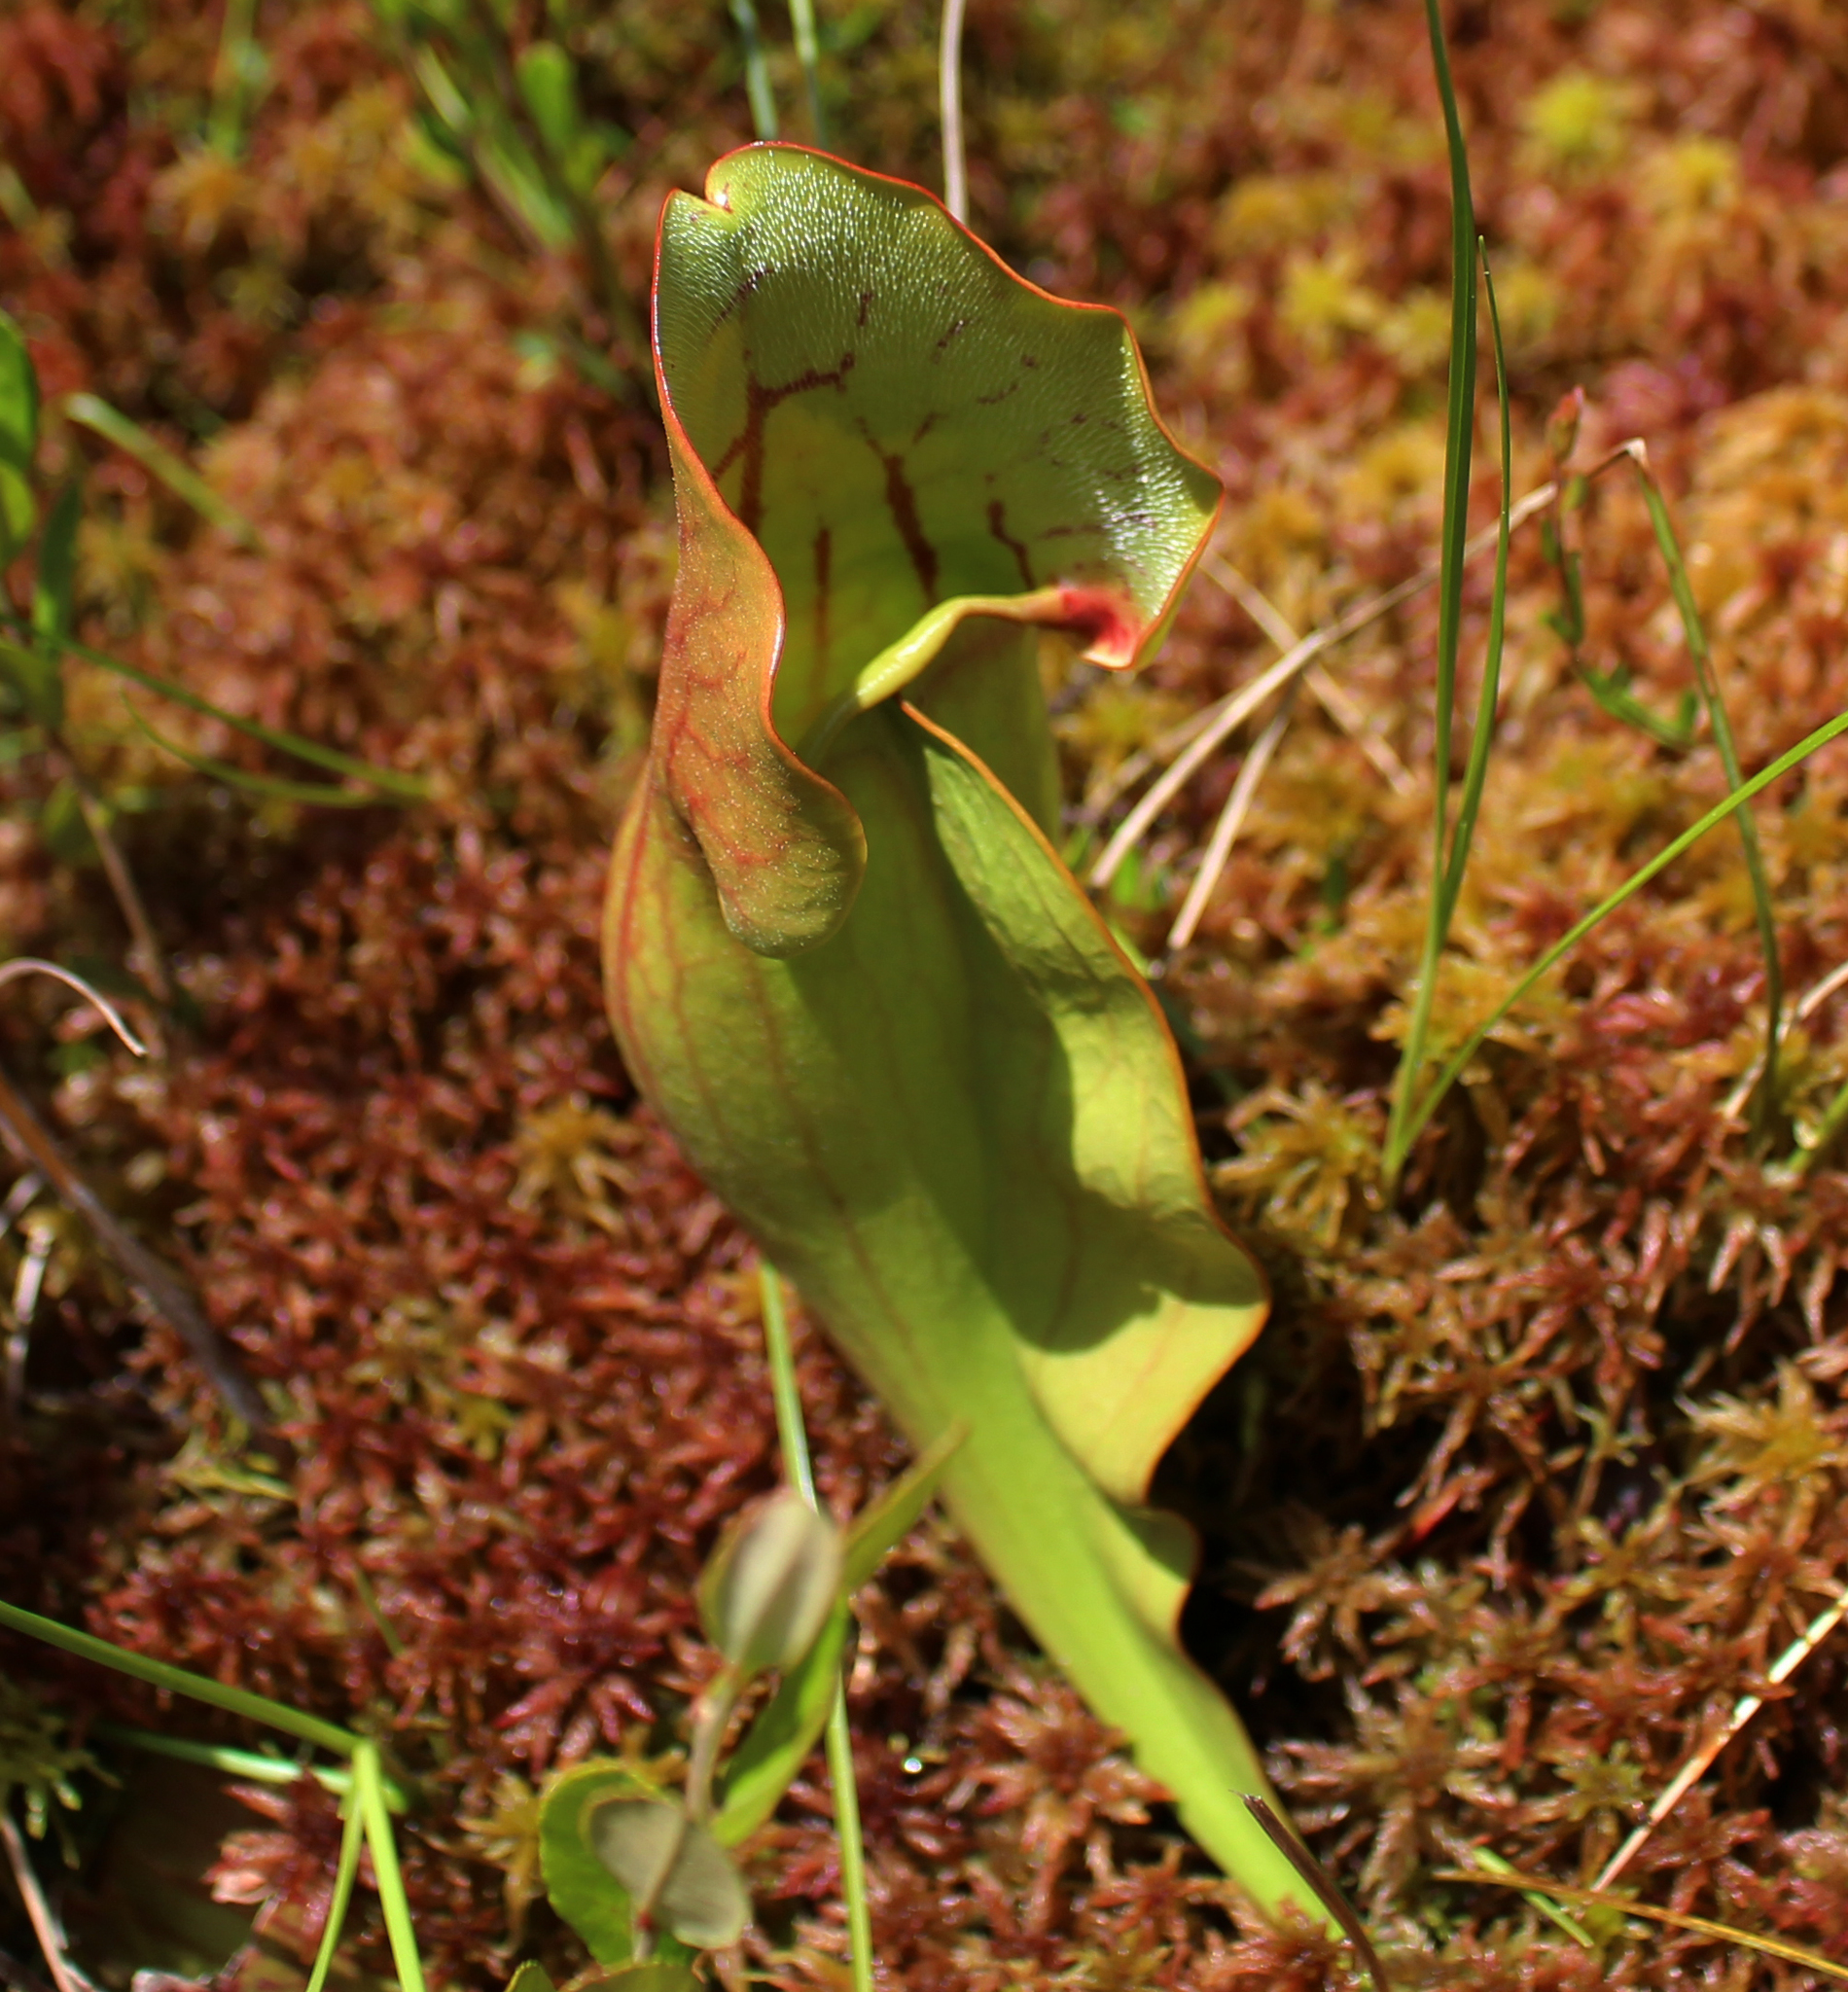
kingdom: Plantae
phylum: Tracheophyta
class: Magnoliopsida
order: Ericales
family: Sarraceniaceae
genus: Sarracenia
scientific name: Sarracenia purpurea
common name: Pitcherplant
